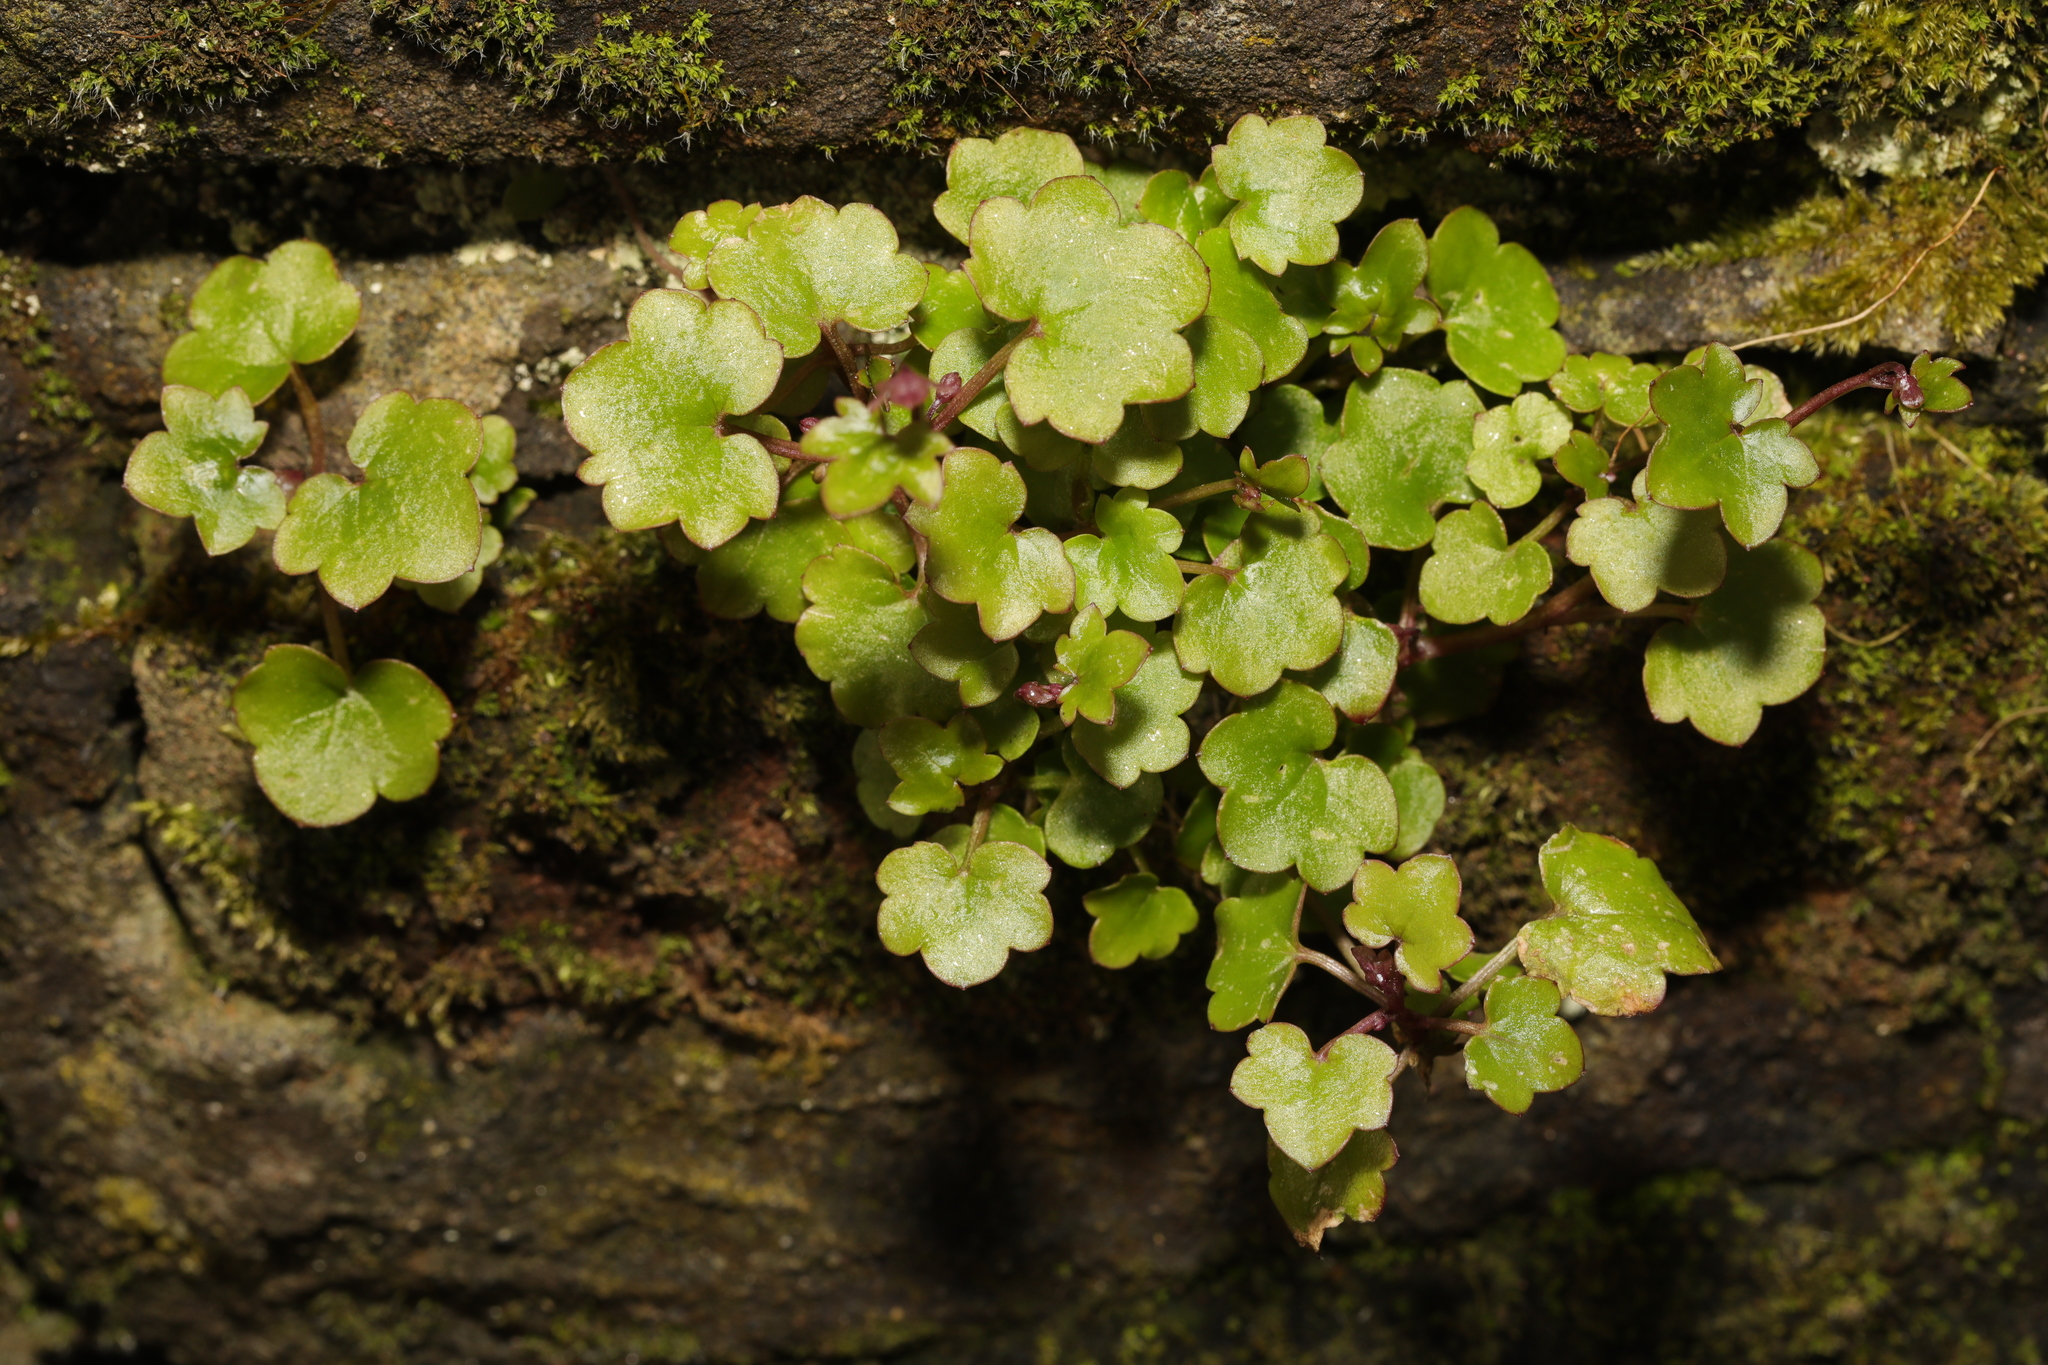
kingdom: Plantae
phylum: Tracheophyta
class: Magnoliopsida
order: Lamiales
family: Plantaginaceae
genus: Cymbalaria
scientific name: Cymbalaria muralis
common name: Ivy-leaved toadflax
